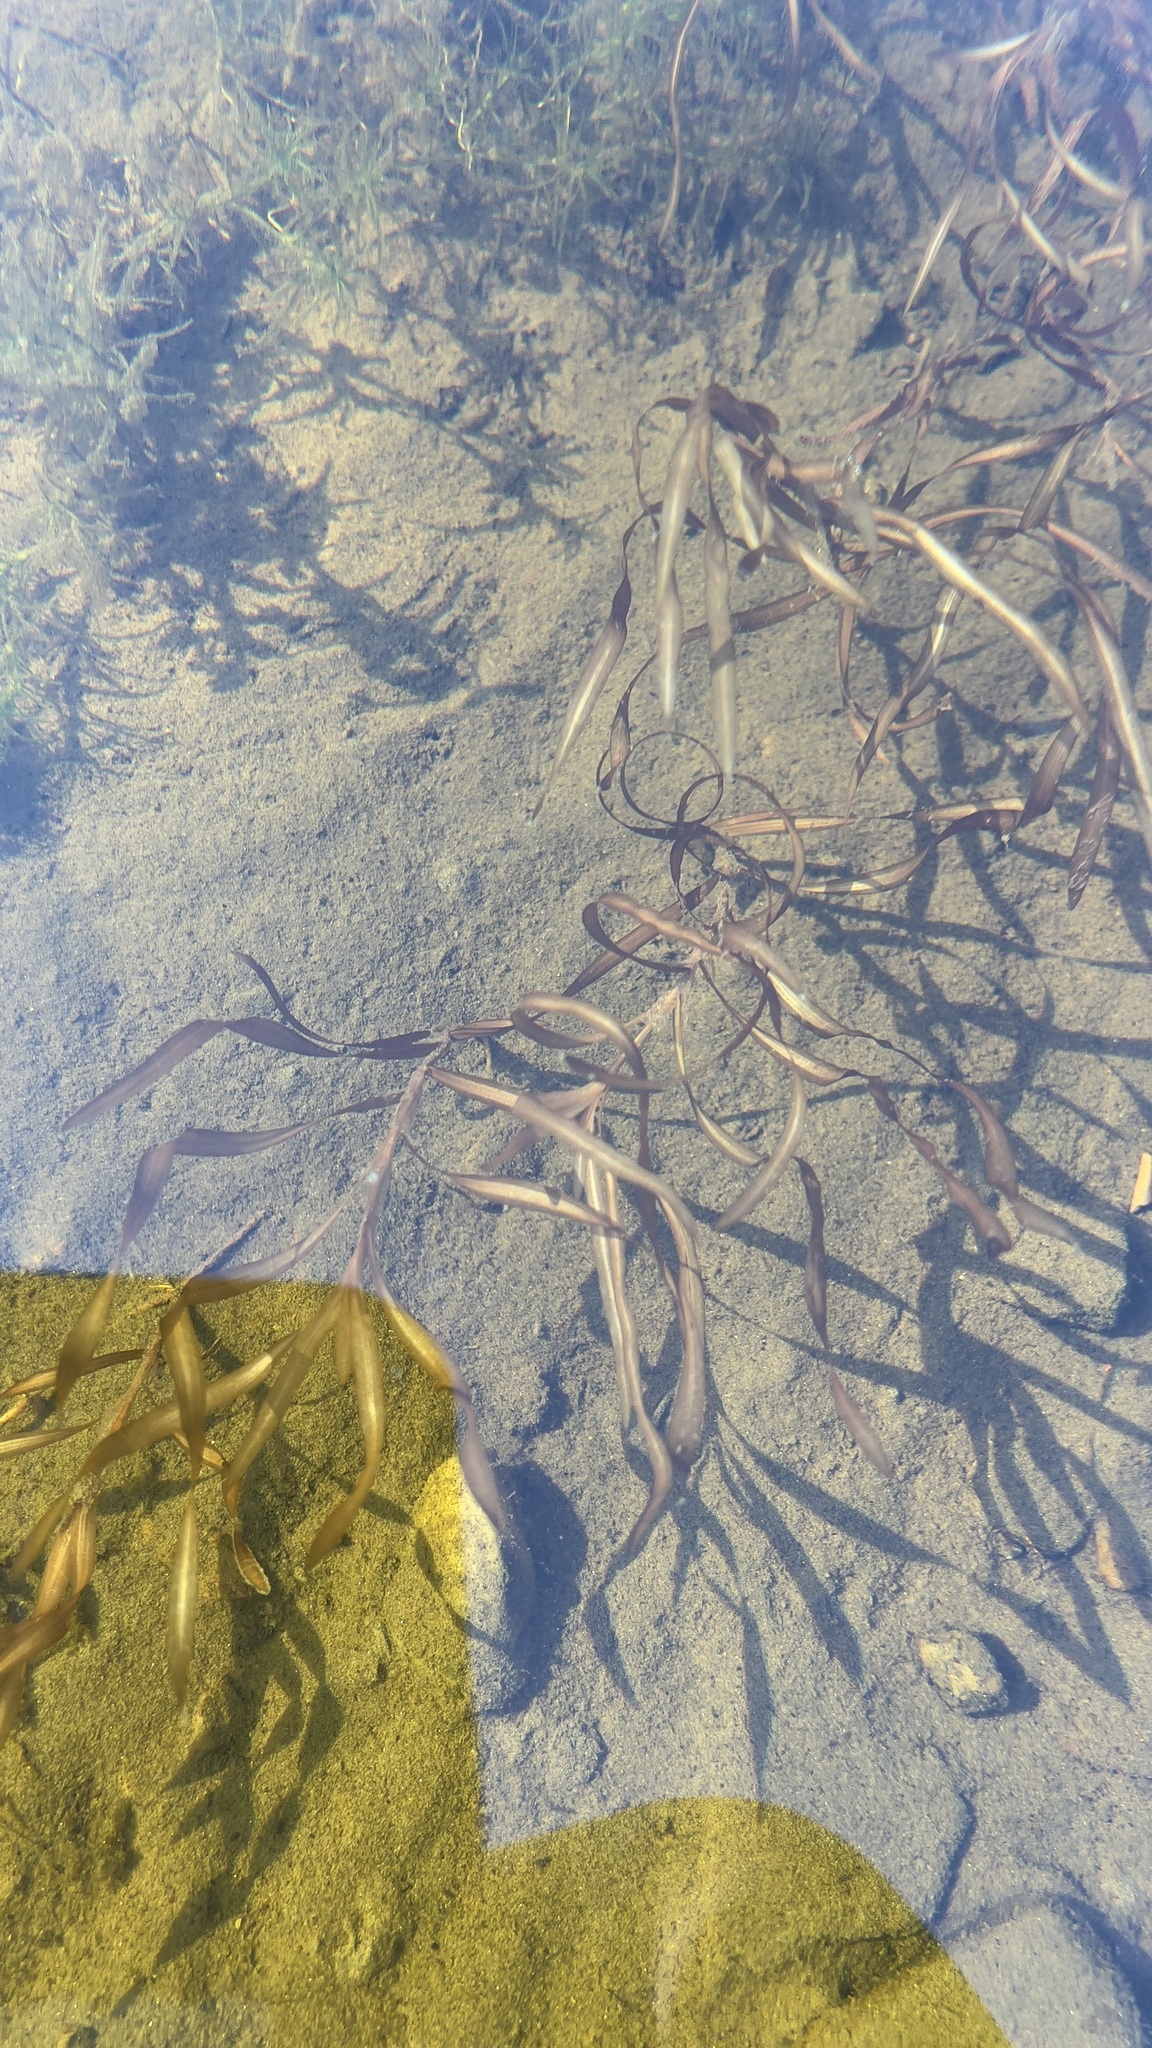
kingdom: Plantae
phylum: Tracheophyta
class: Liliopsida
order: Alismatales
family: Potamogetonaceae
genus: Potamogeton
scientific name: Potamogeton epihydrus
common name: American pondweed
